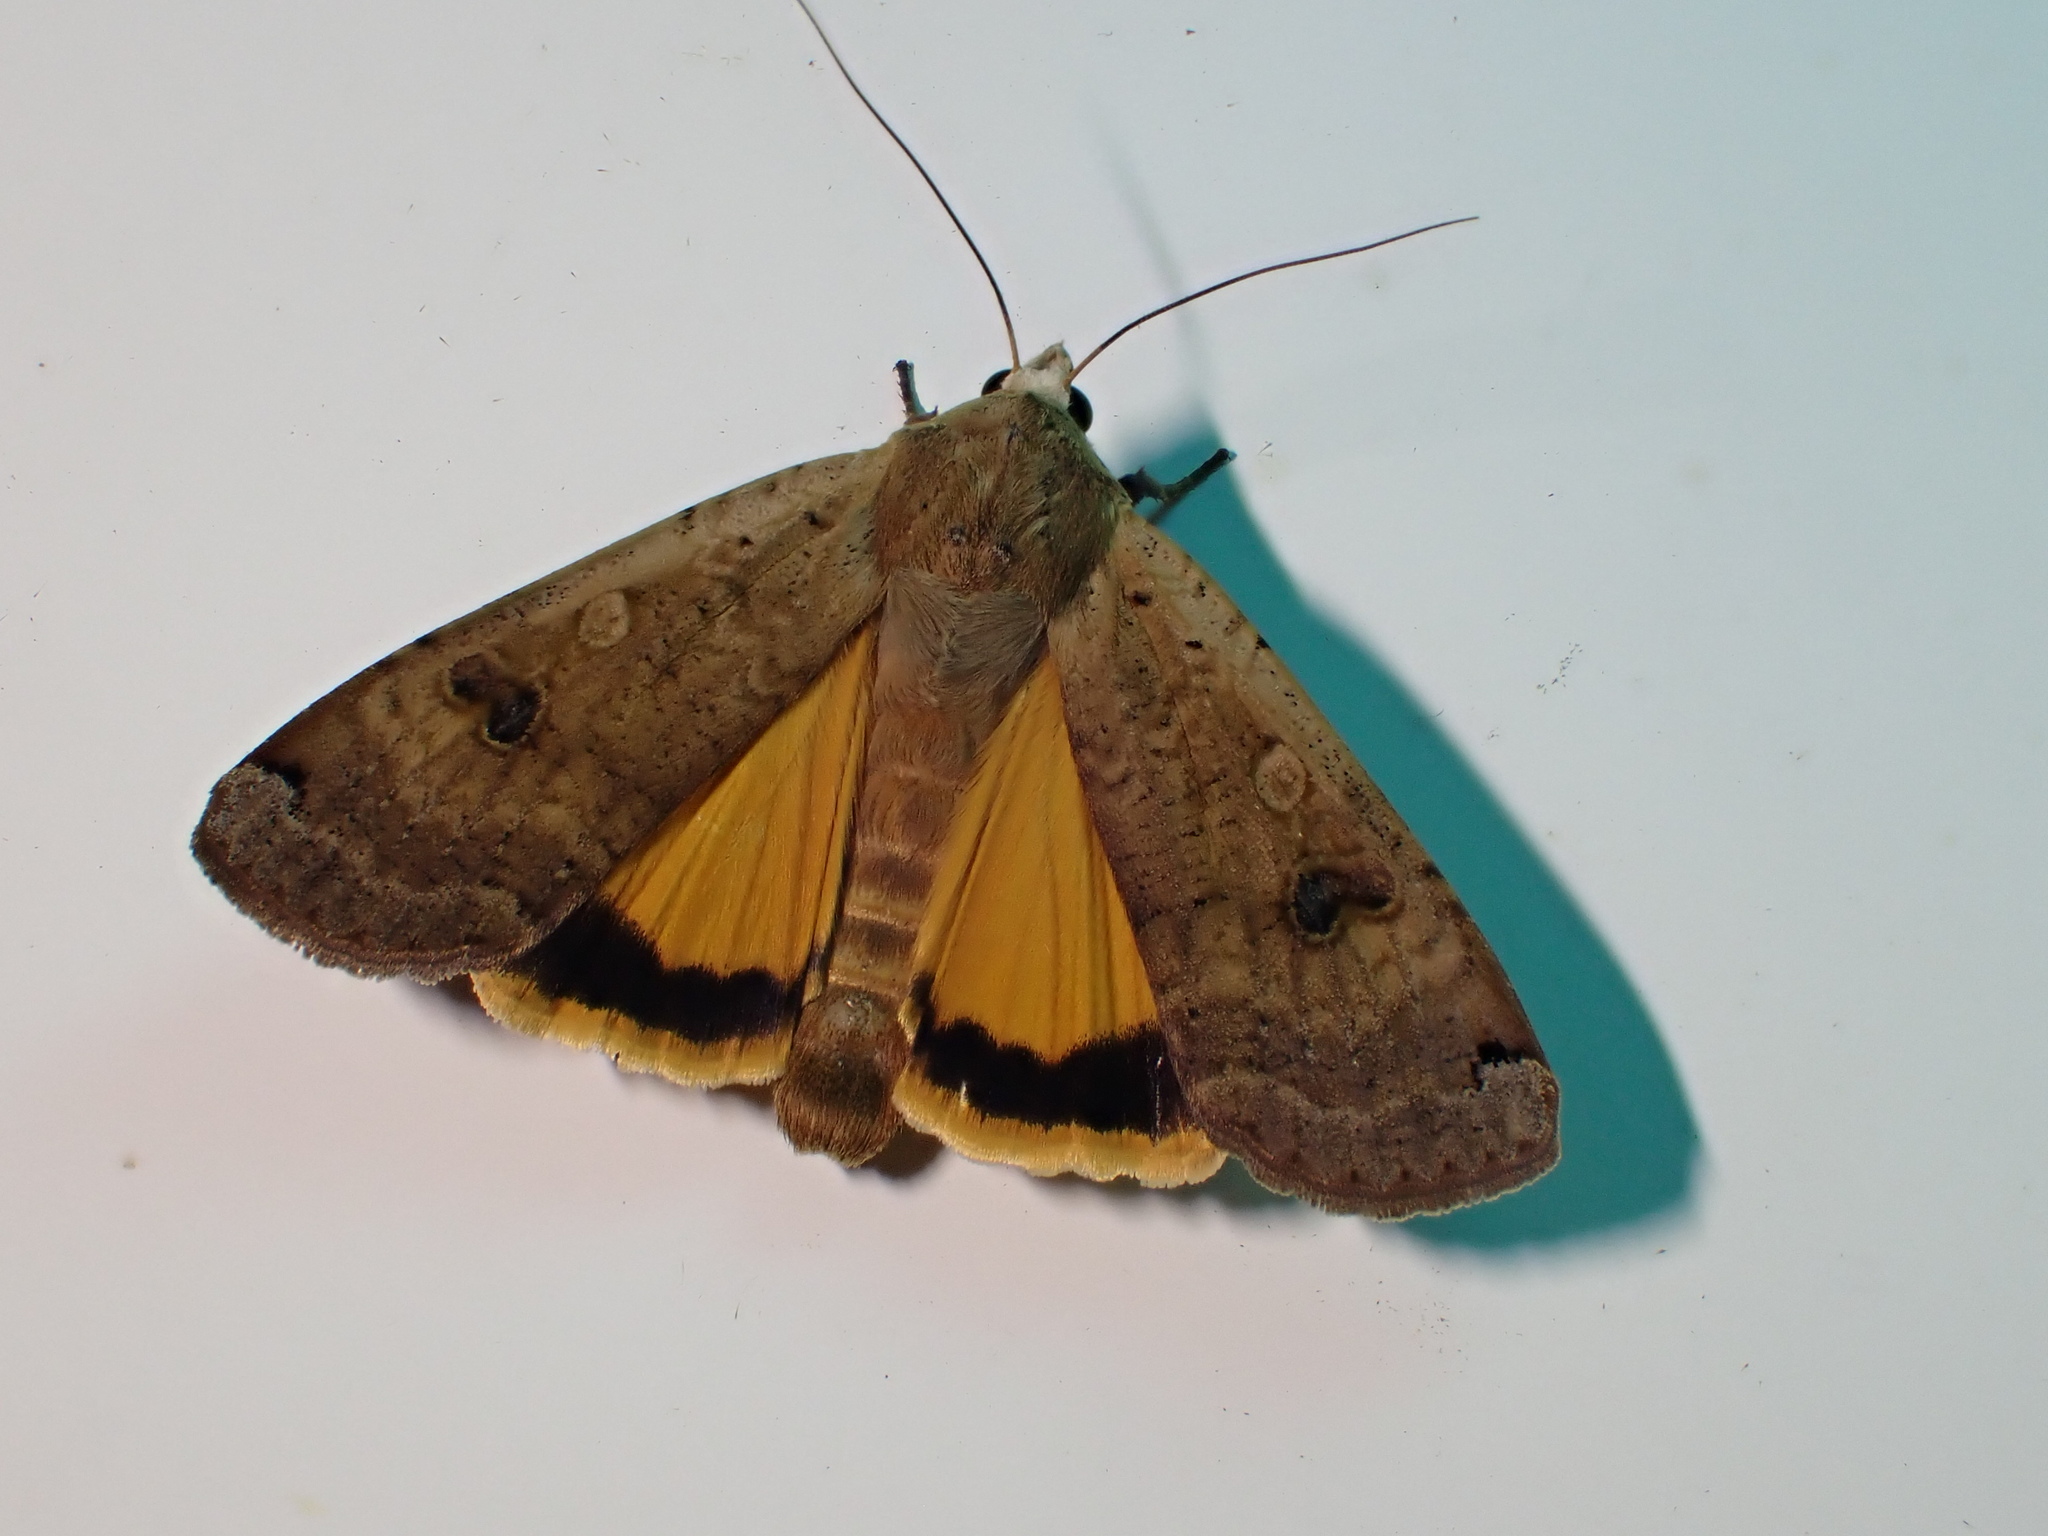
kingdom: Animalia
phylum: Arthropoda
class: Insecta
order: Lepidoptera
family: Noctuidae
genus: Noctua
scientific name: Noctua pronuba
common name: Large yellow underwing
